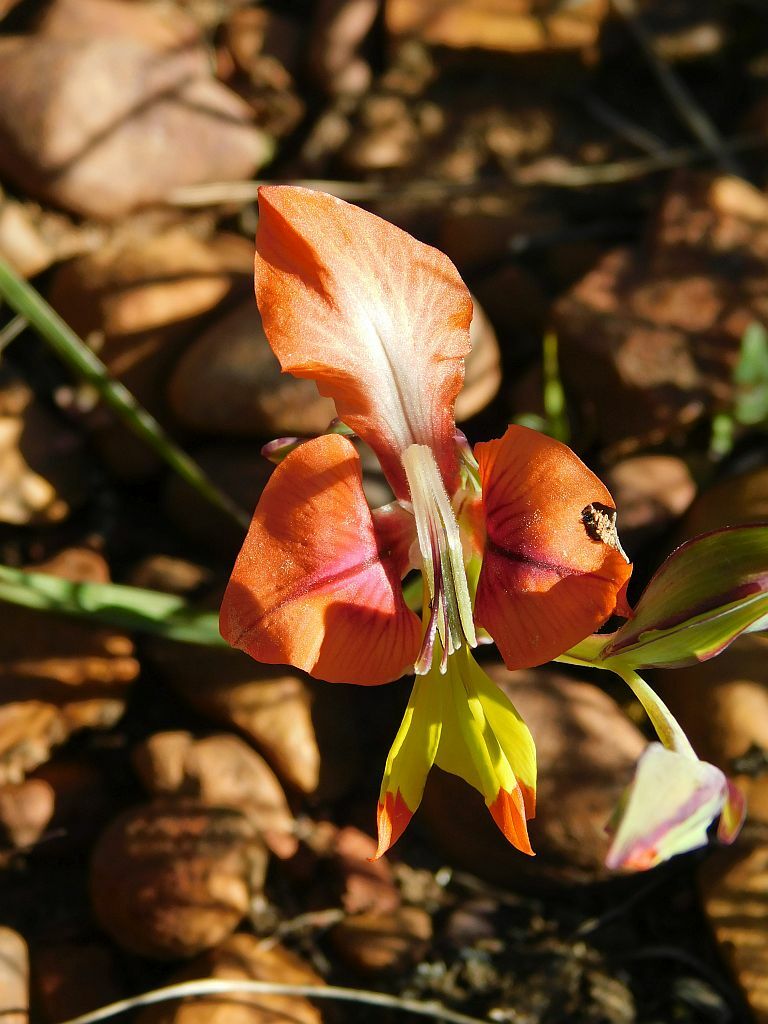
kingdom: Plantae
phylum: Tracheophyta
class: Liliopsida
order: Asparagales
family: Iridaceae
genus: Gladiolus
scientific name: Gladiolus alatus
